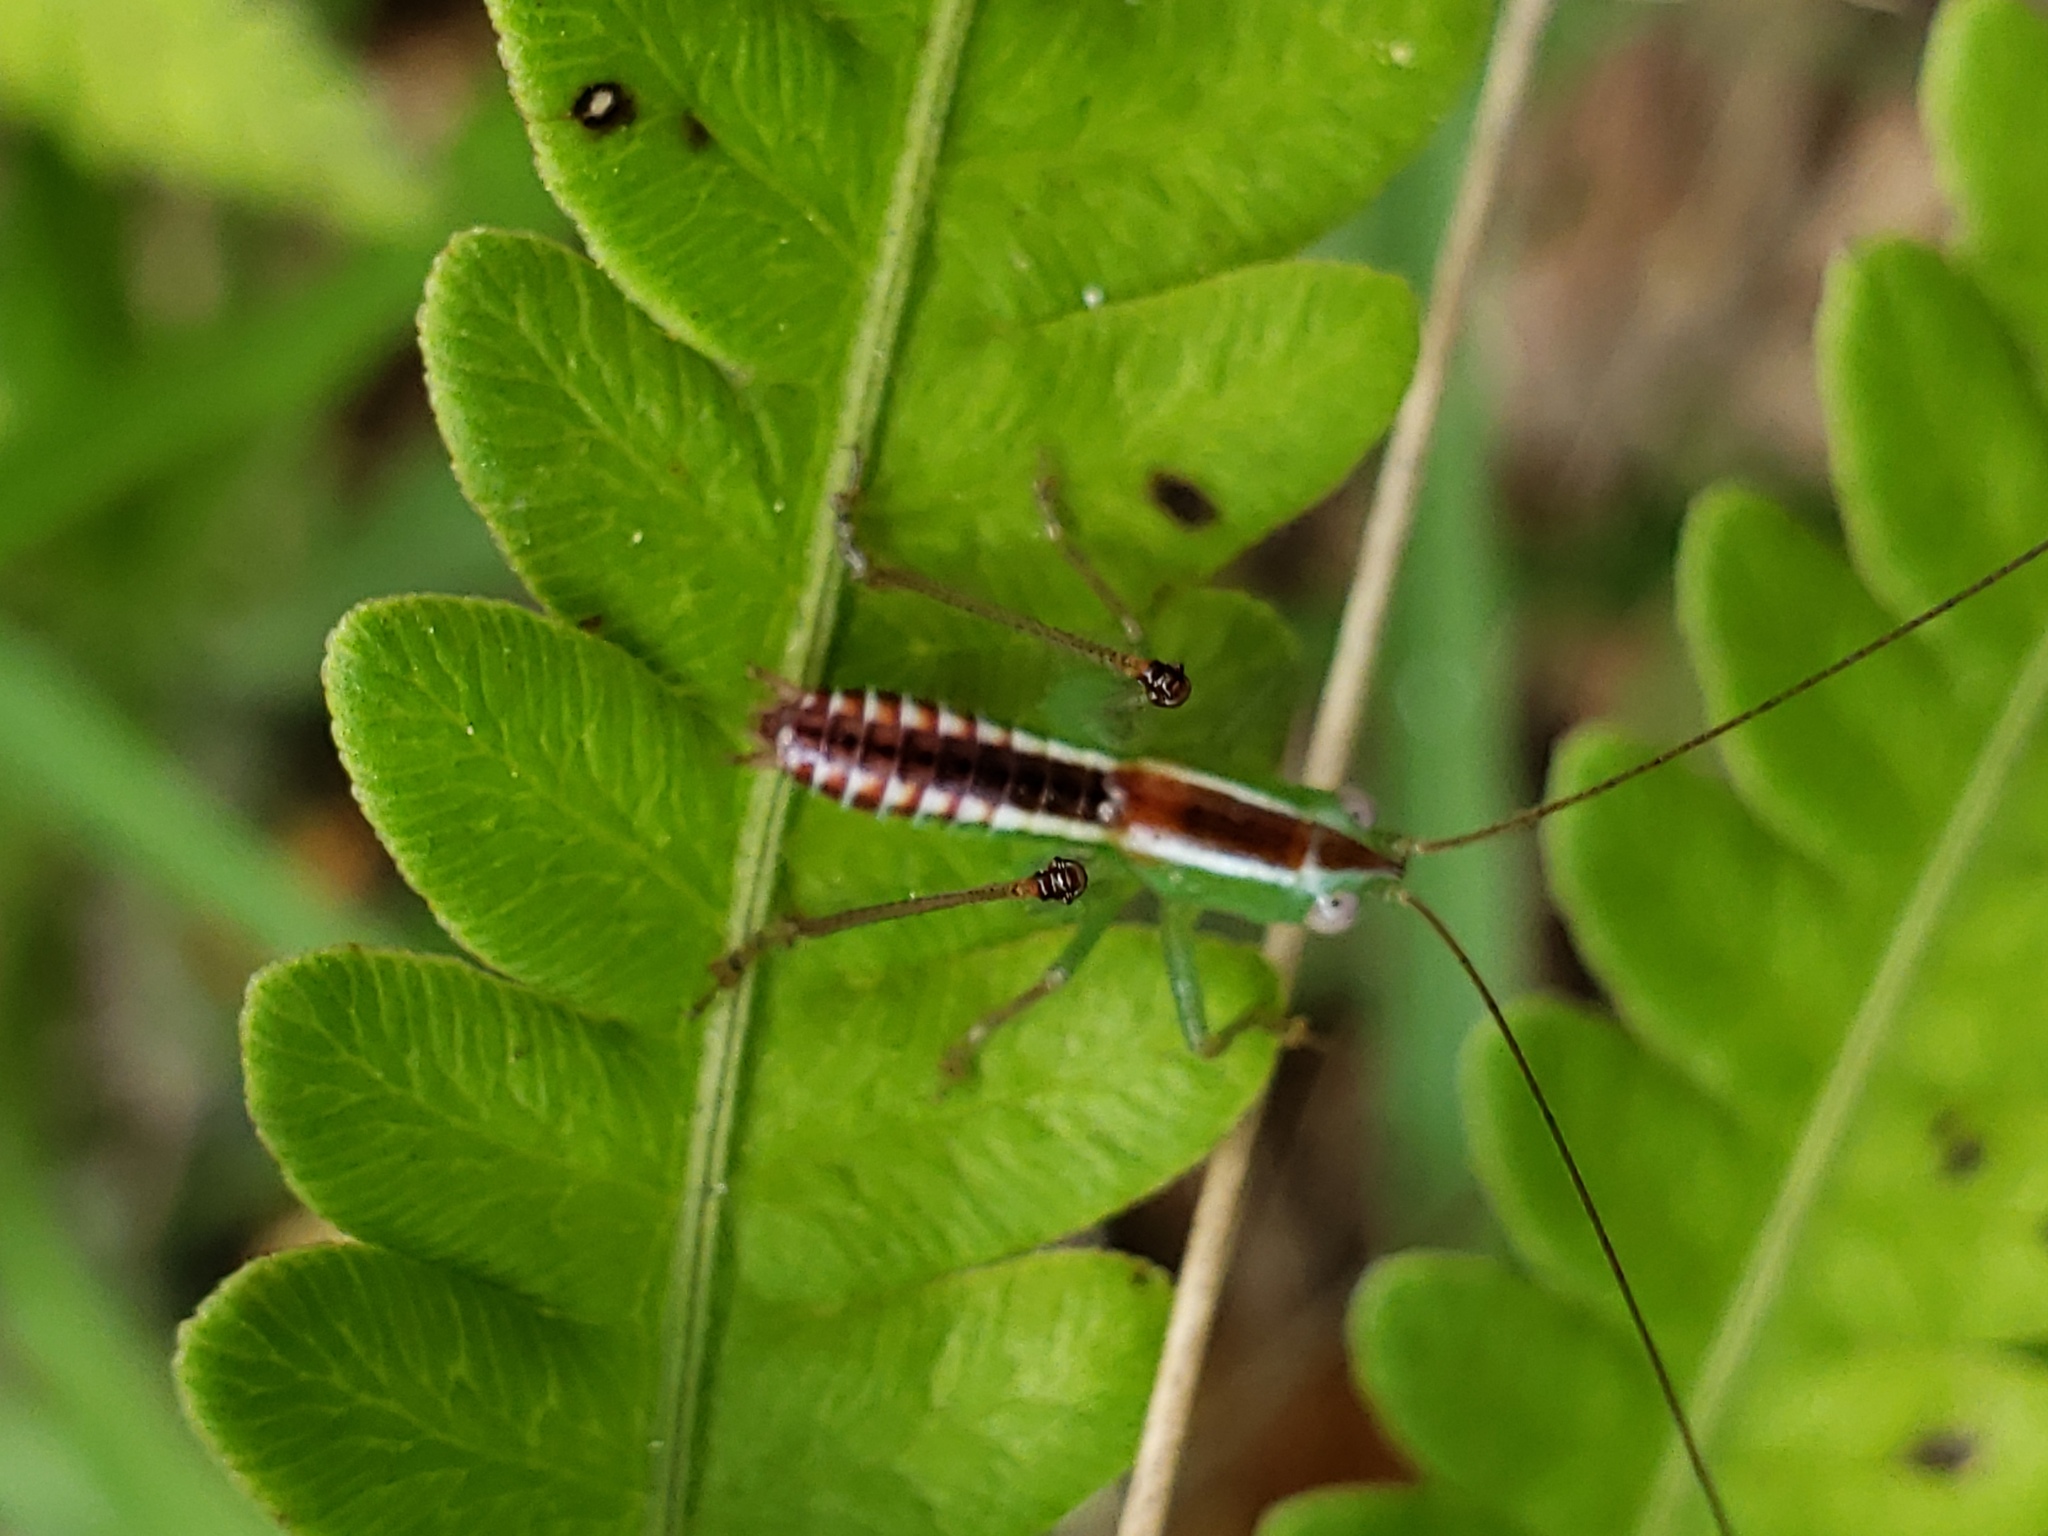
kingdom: Animalia
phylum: Arthropoda
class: Insecta
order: Orthoptera
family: Tettigoniidae
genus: Odontoxiphidium
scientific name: Odontoxiphidium apterum
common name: Wingless meadow katydid
